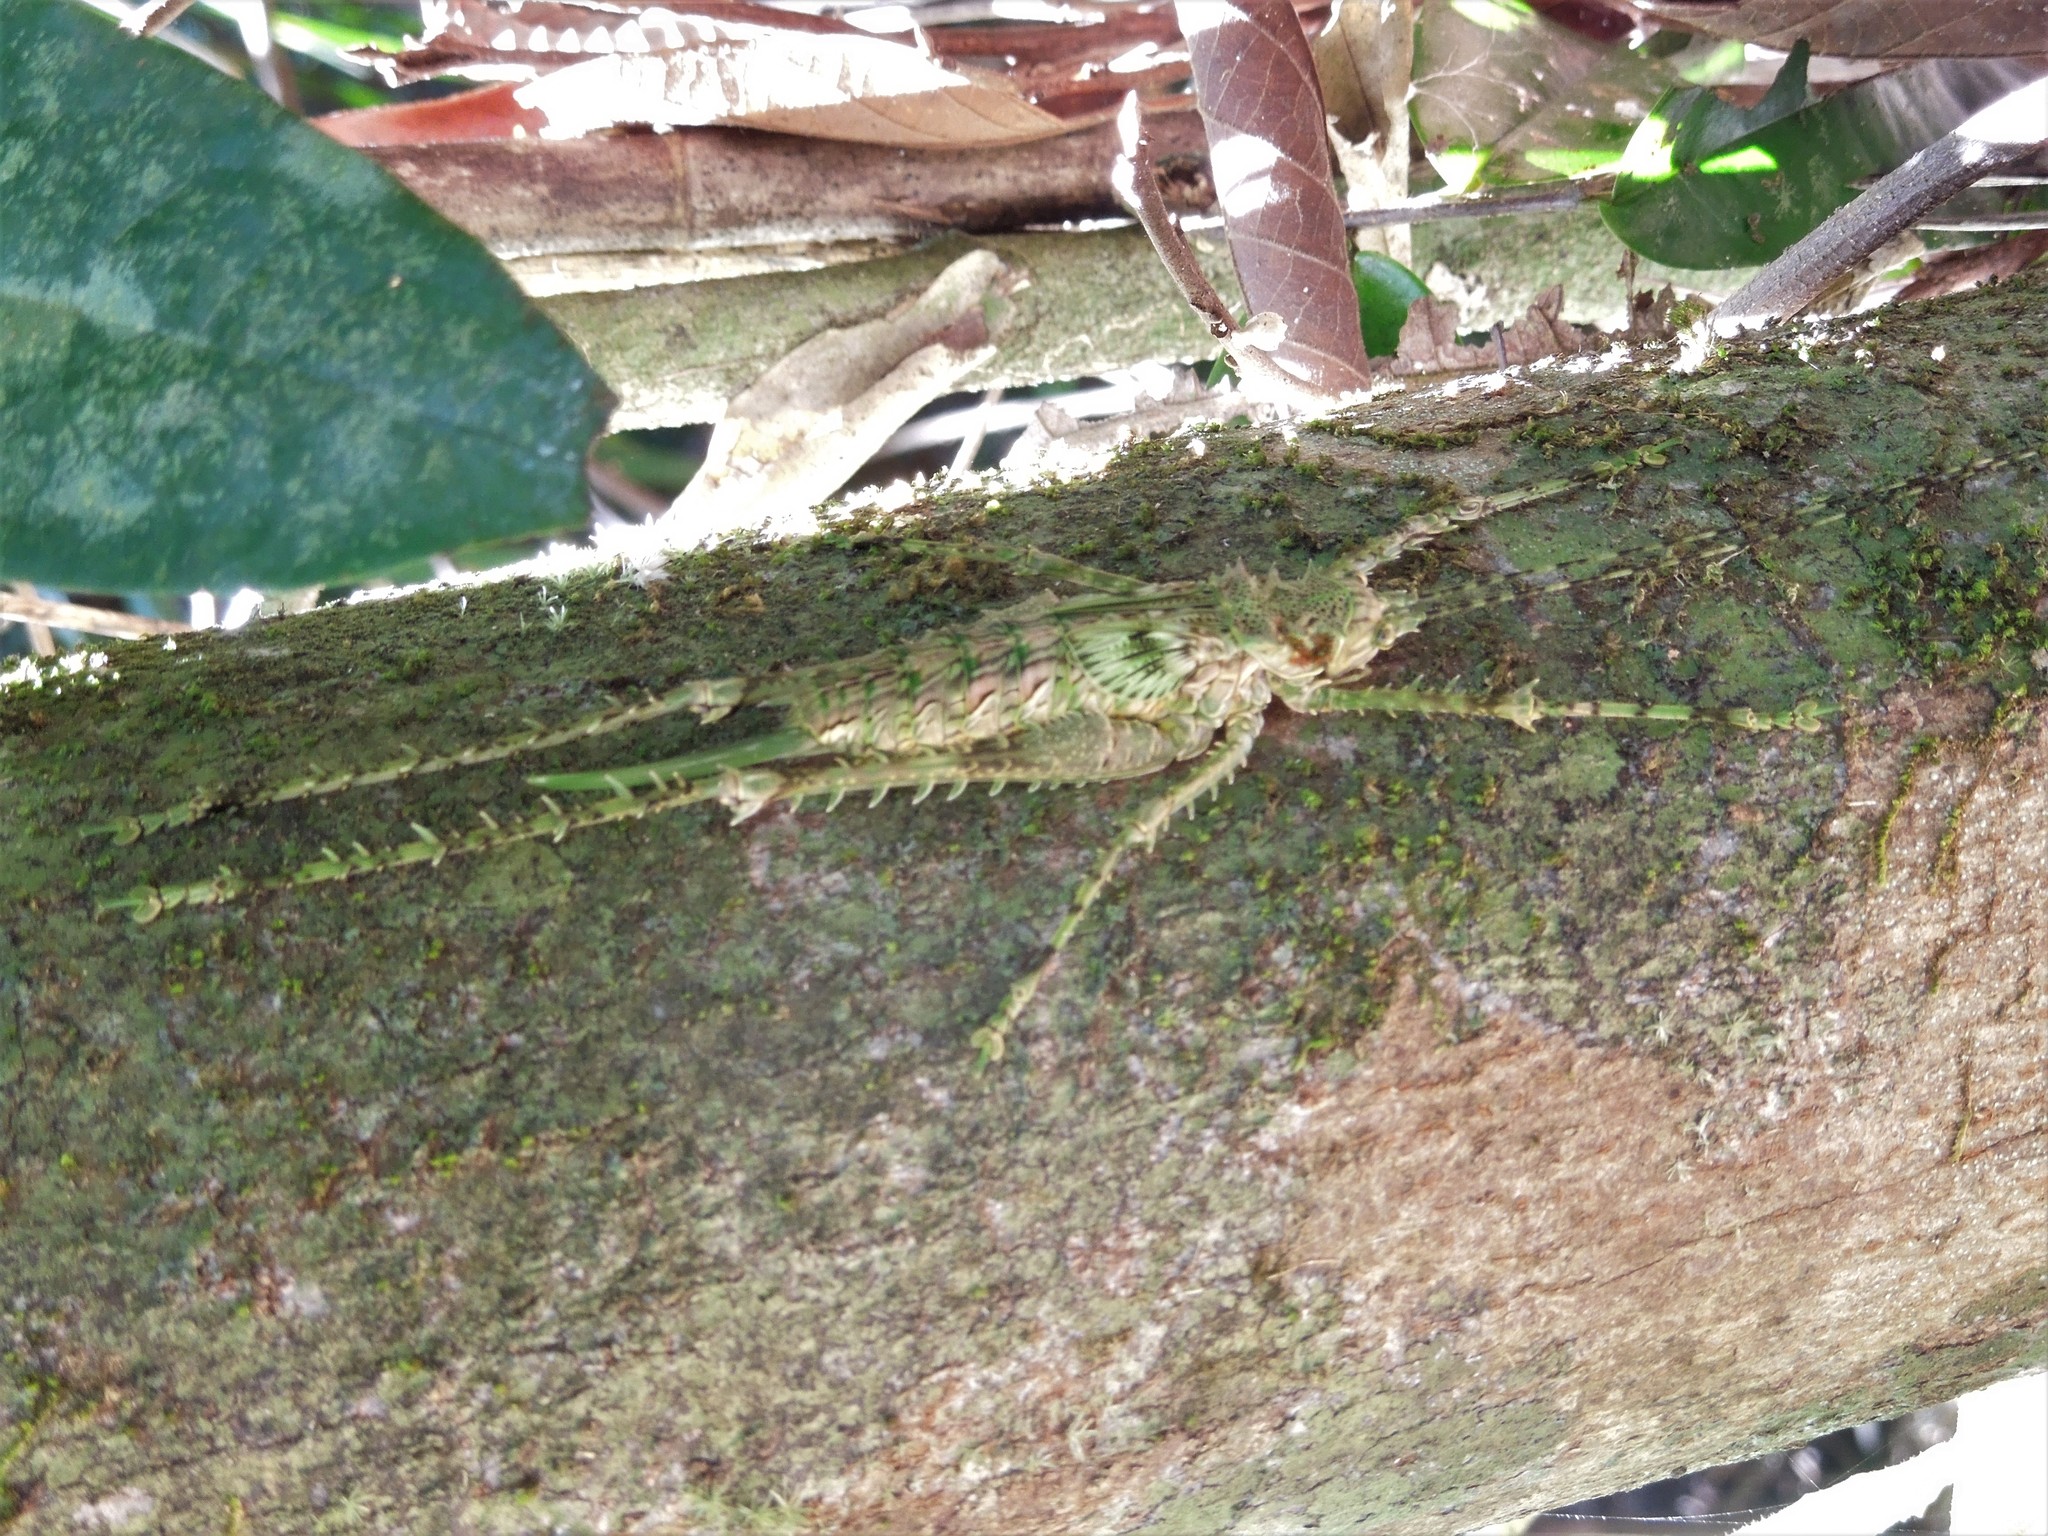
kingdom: Animalia
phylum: Arthropoda
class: Insecta
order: Orthoptera
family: Tettigoniidae
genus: Phricta
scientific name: Phricta spinosa
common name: Giant spiny forest katydid
